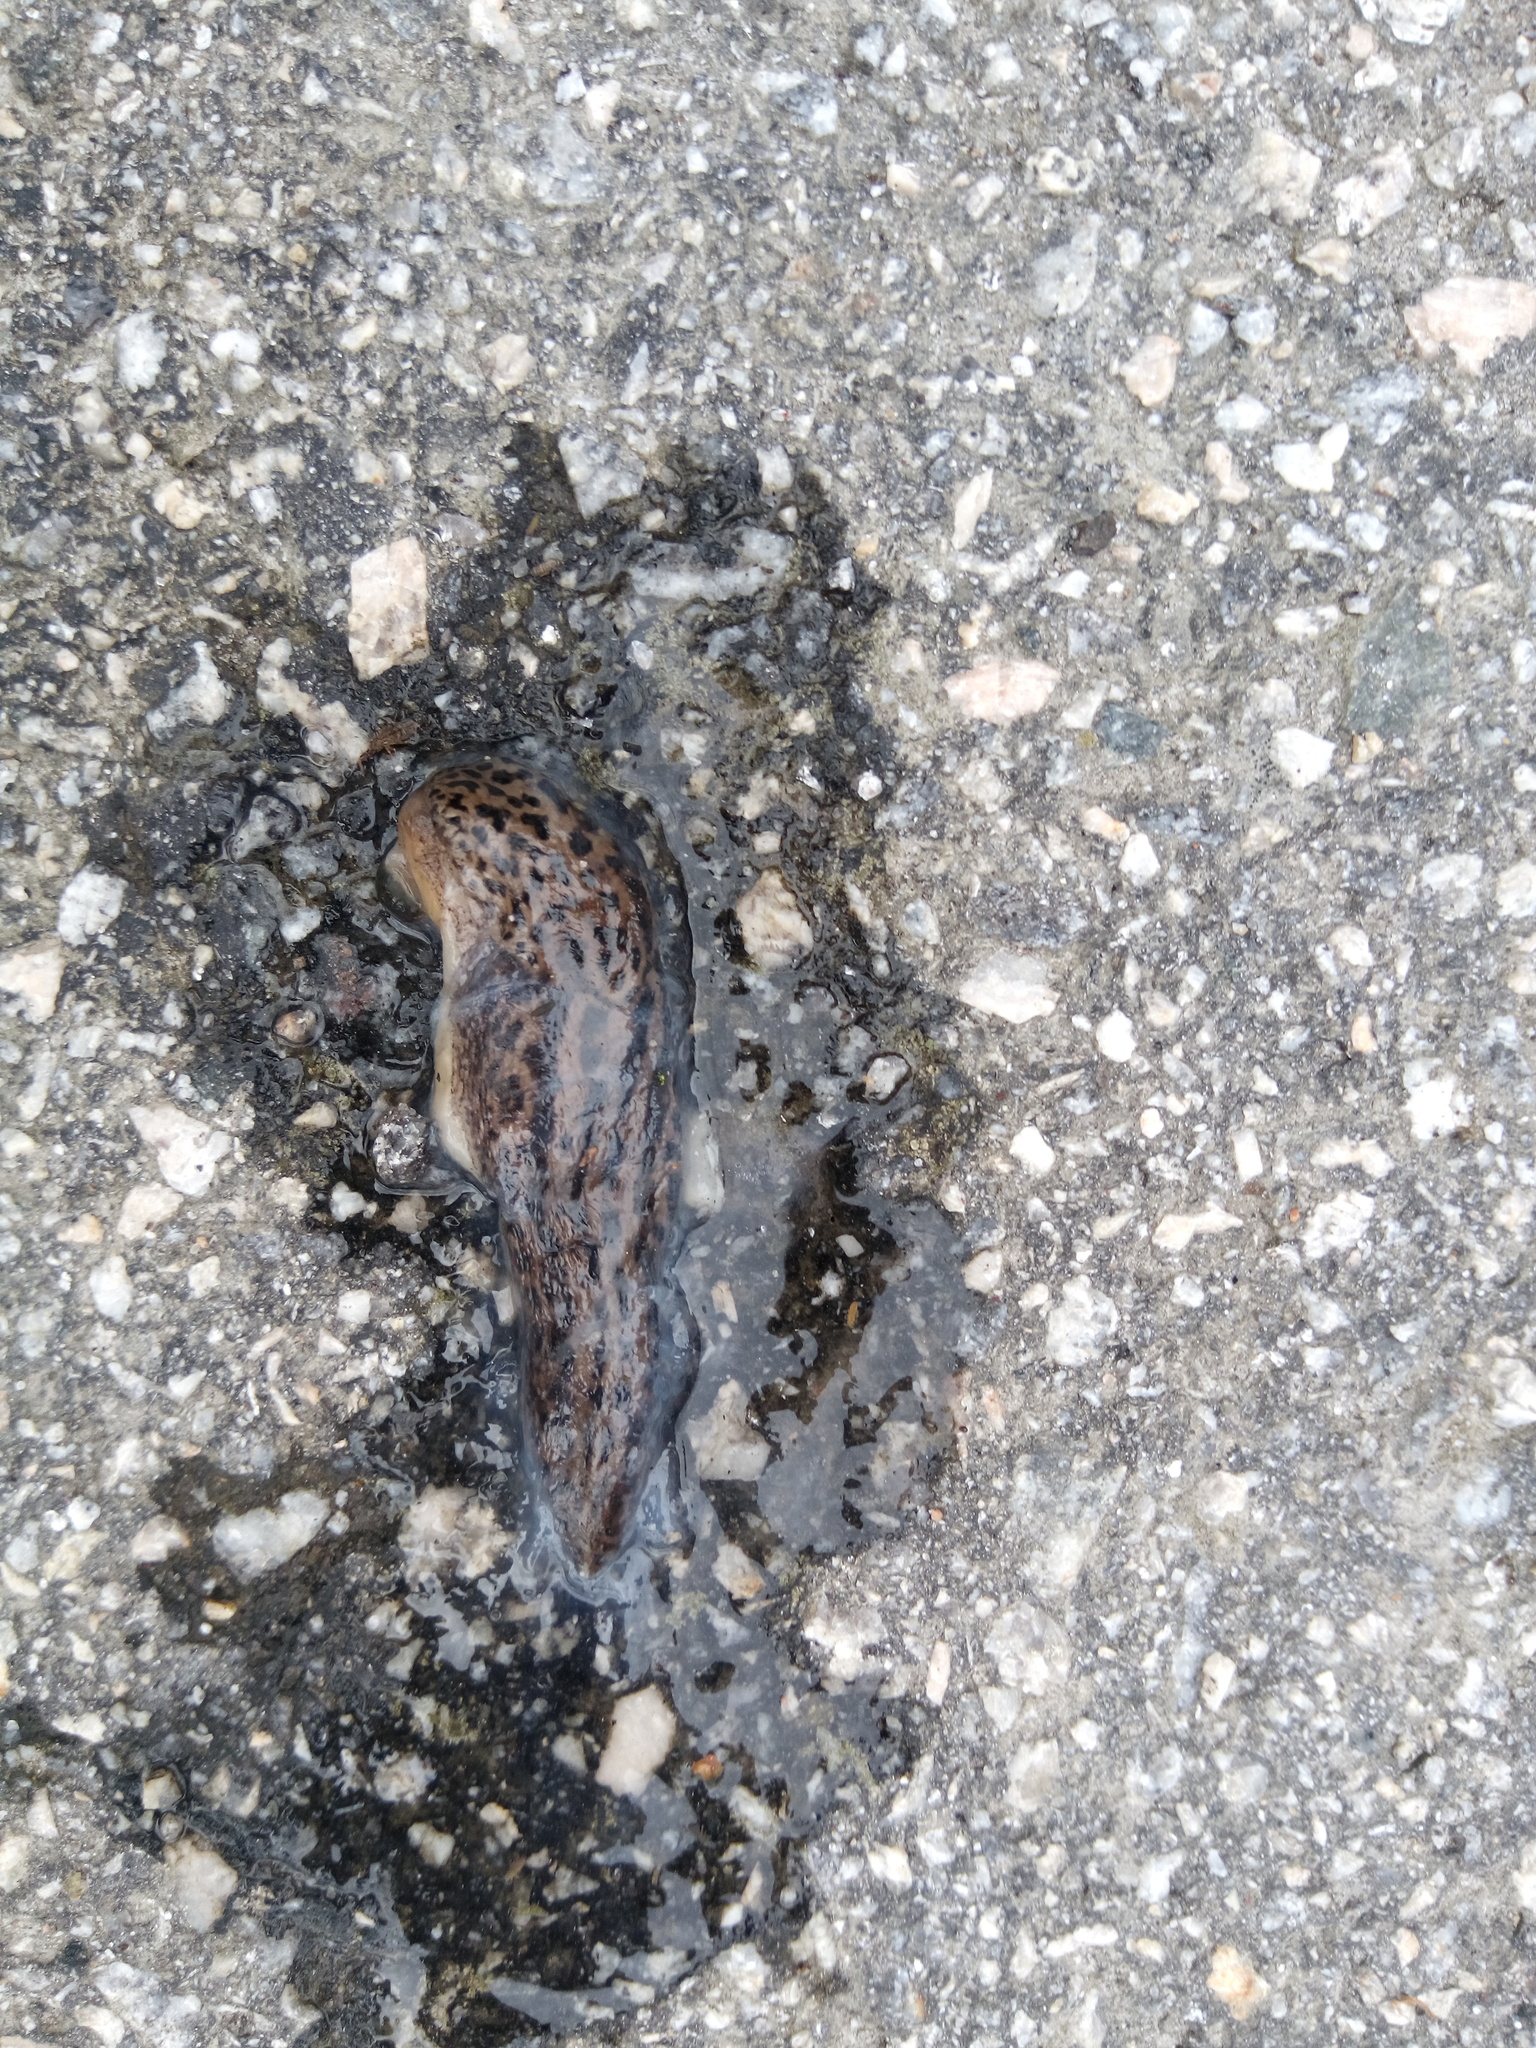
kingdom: Animalia
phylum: Mollusca
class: Gastropoda
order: Stylommatophora
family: Limacidae
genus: Limax
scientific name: Limax maximus
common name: Great grey slug
